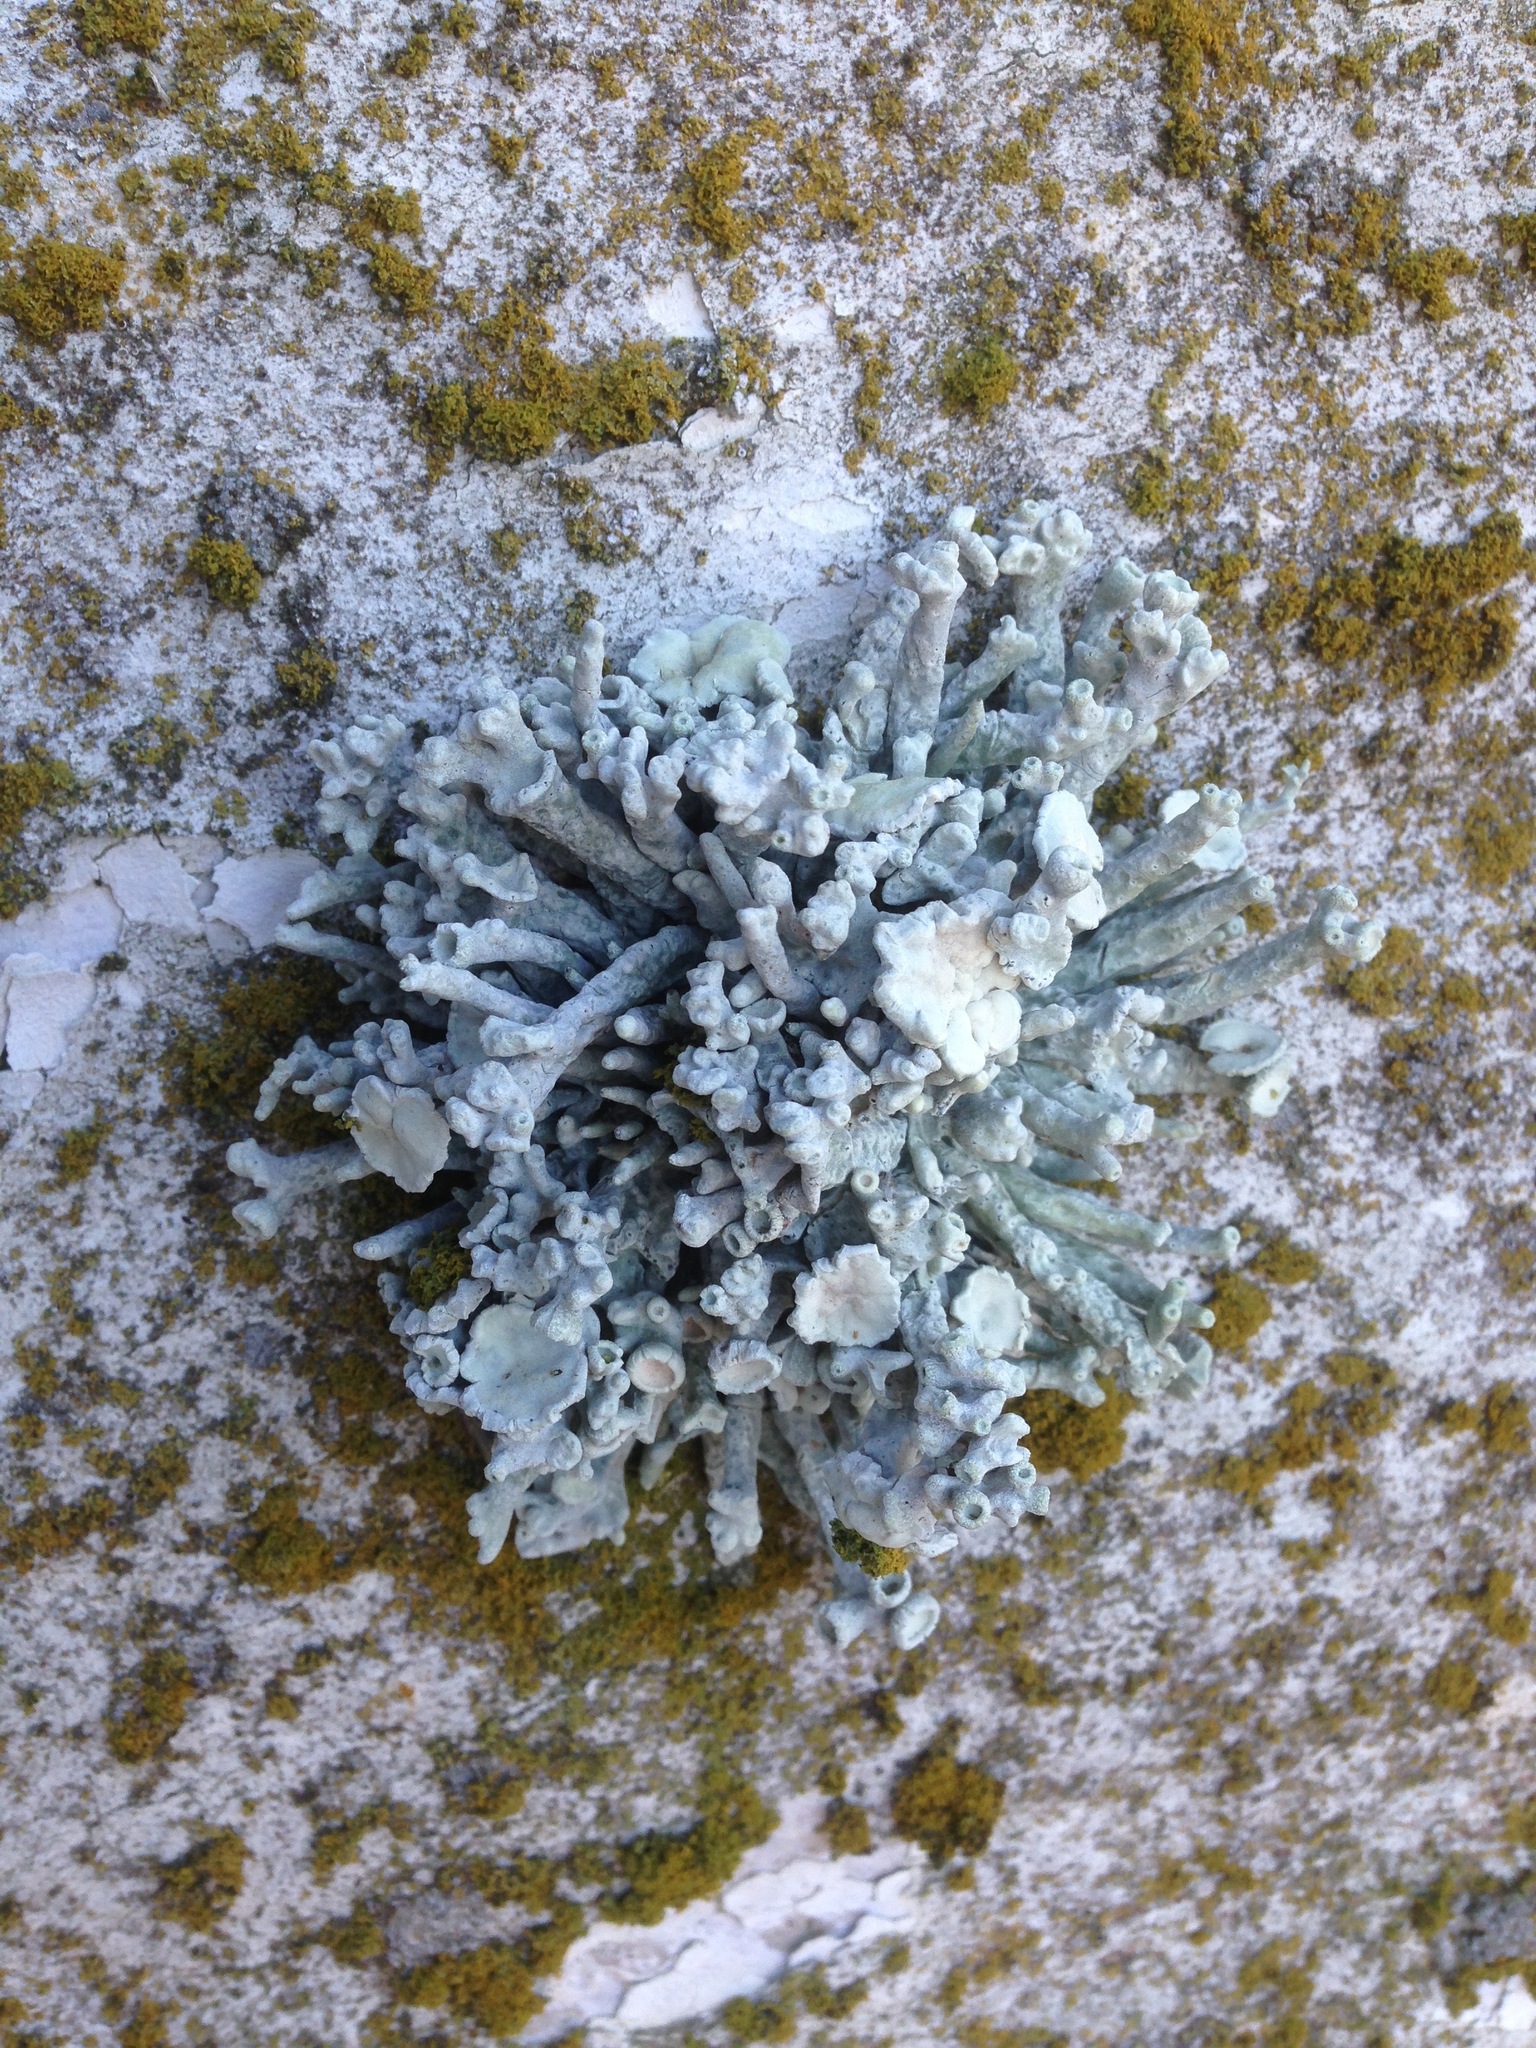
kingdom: Fungi
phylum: Ascomycota
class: Lecanoromycetes
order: Lecanorales
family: Ramalinaceae
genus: Niebla
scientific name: Niebla combeoides
